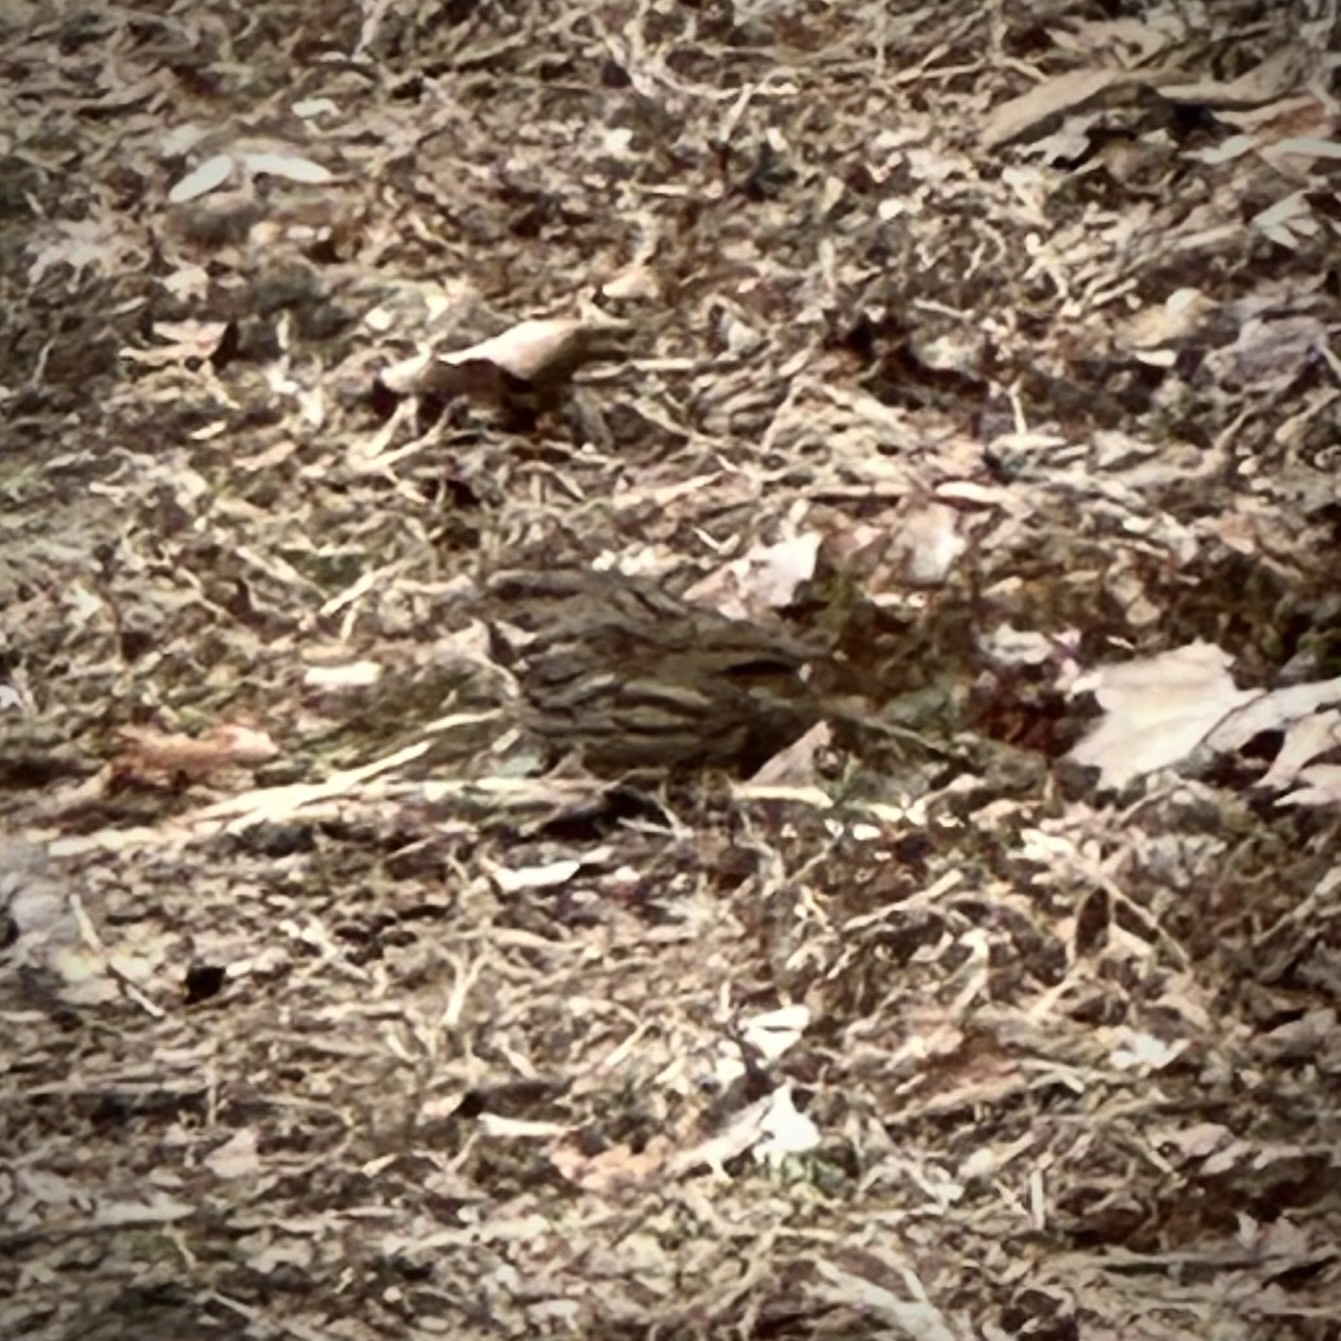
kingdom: Animalia
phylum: Chordata
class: Aves
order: Passeriformes
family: Passerellidae
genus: Melospiza
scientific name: Melospiza melodia
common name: Song sparrow
